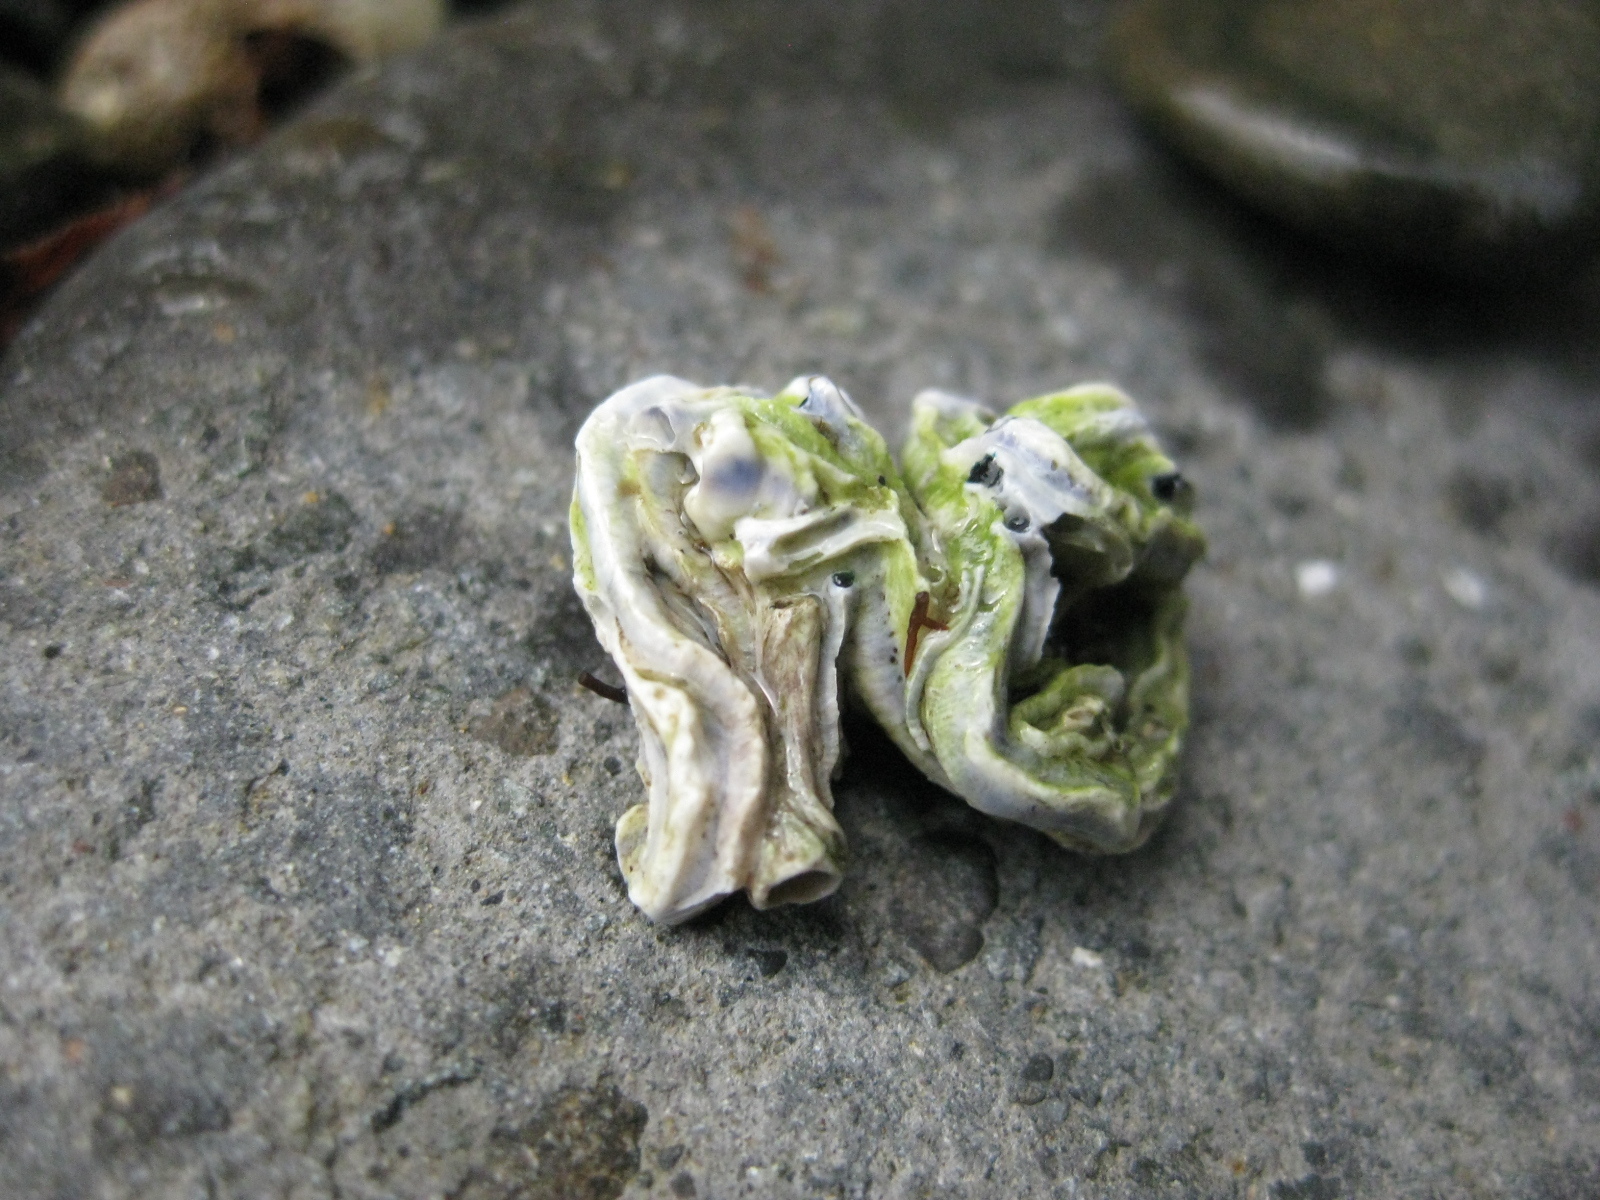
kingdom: Animalia
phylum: Annelida
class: Polychaeta
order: Sabellida
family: Serpulidae
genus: Spirobranchus
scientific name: Spirobranchus cariniferus
